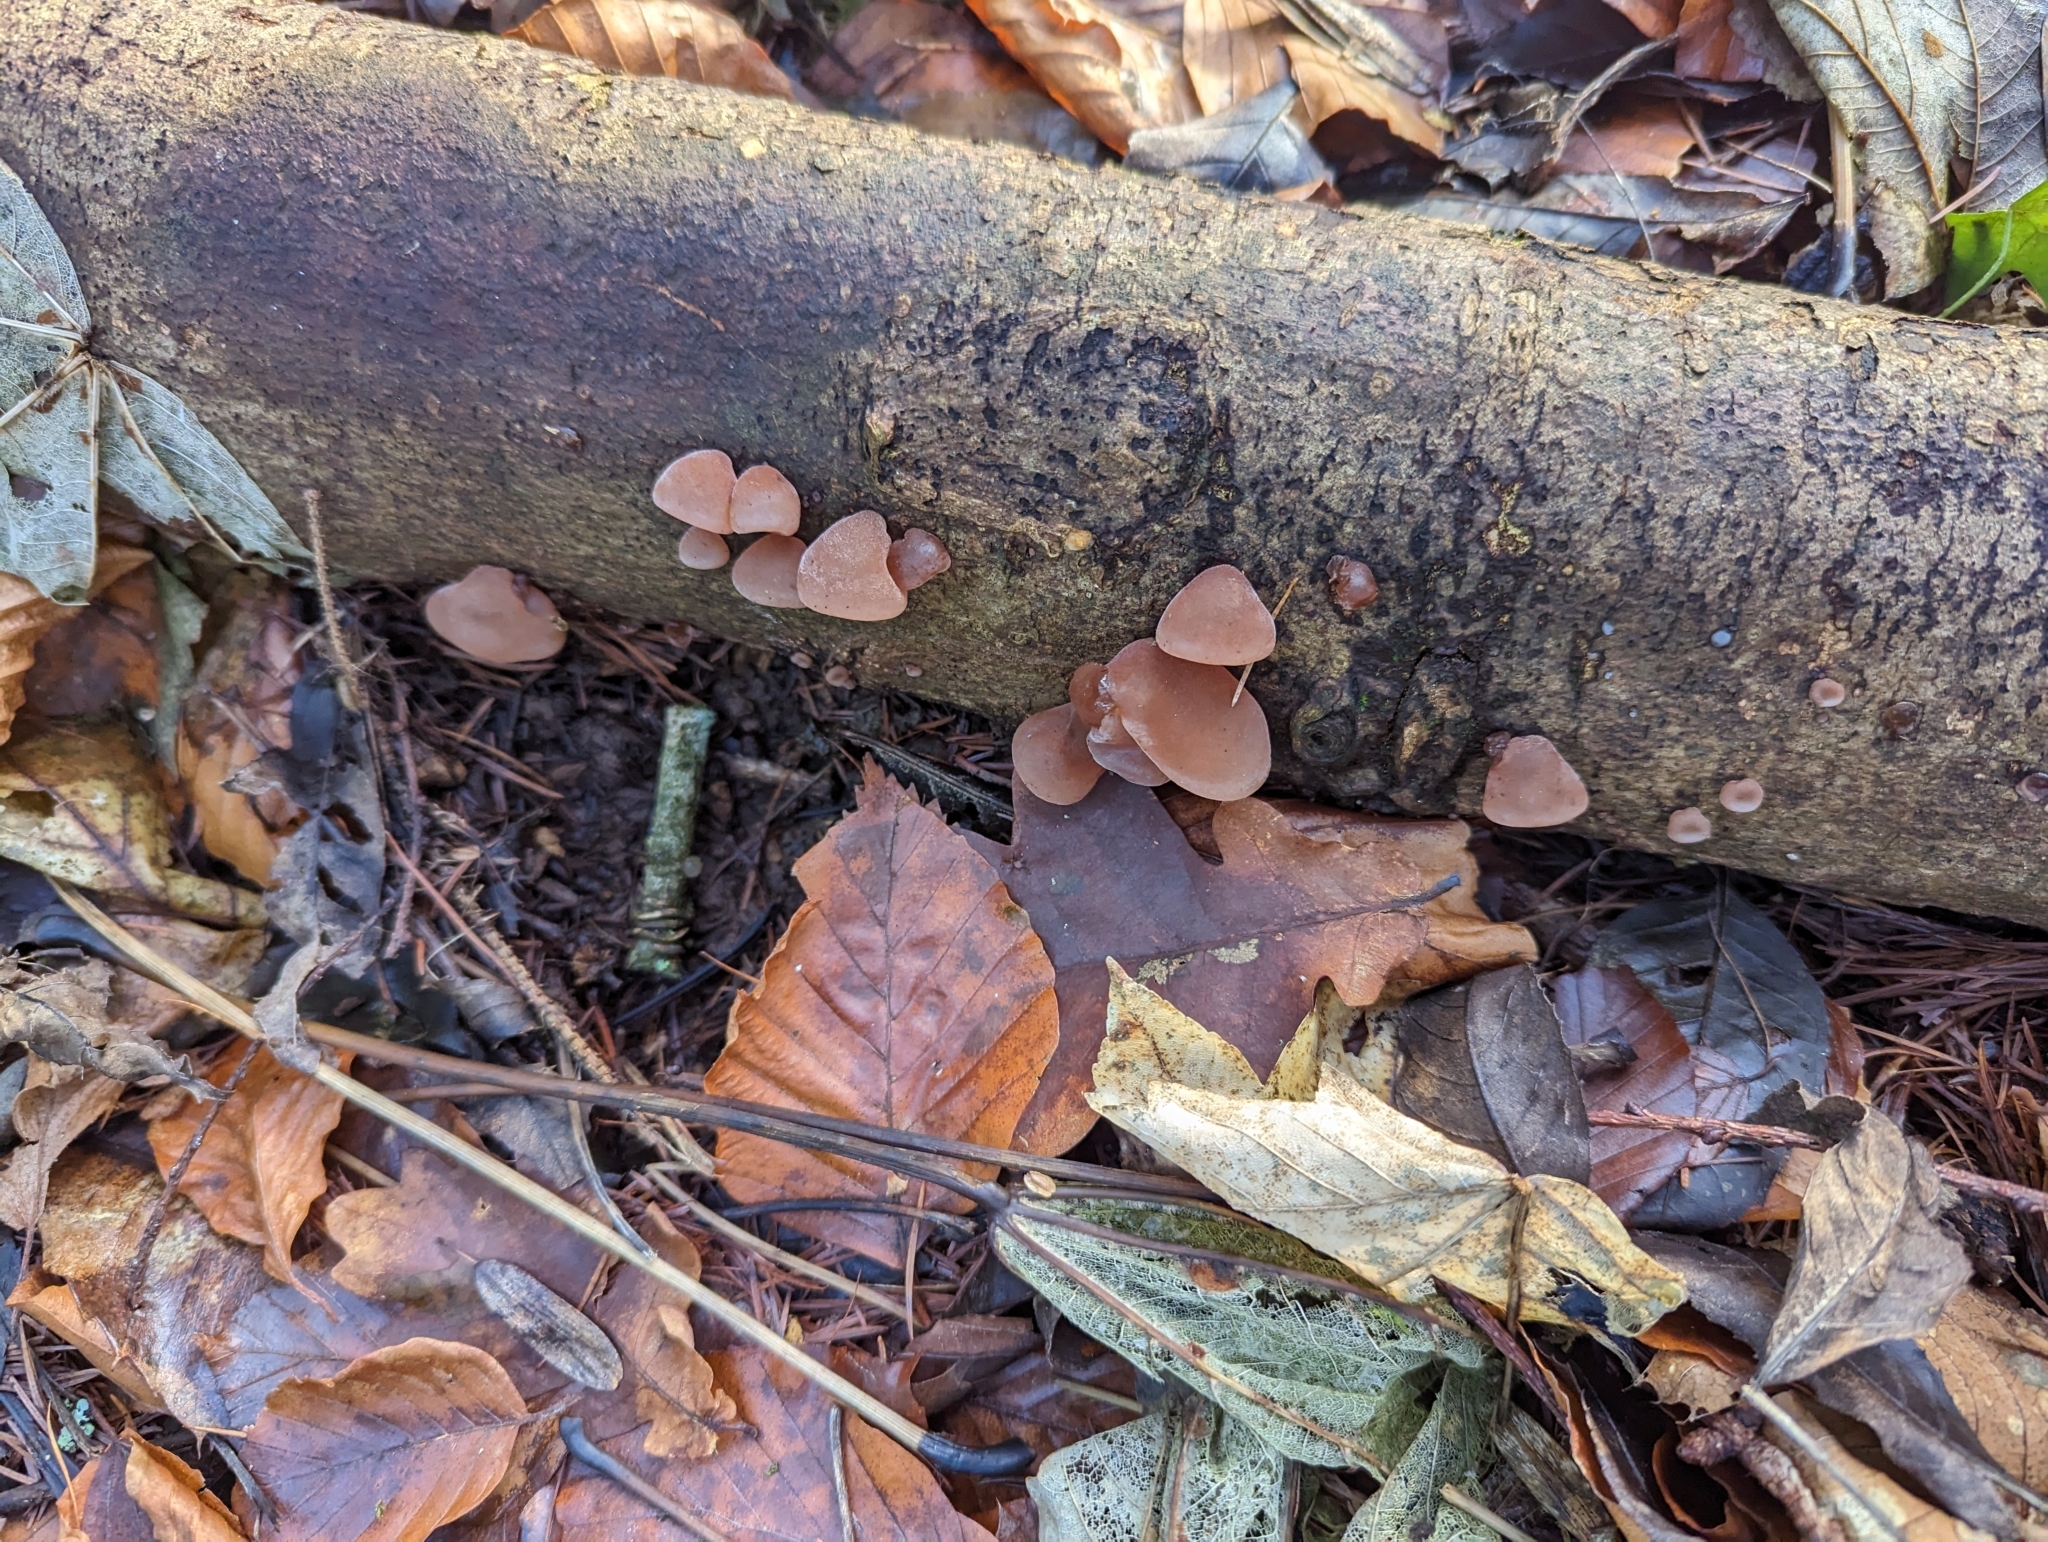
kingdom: Fungi
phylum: Basidiomycota
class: Agaricomycetes
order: Auriculariales
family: Auriculariaceae
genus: Auricularia
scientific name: Auricularia auricula-judae
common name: Jelly ear
